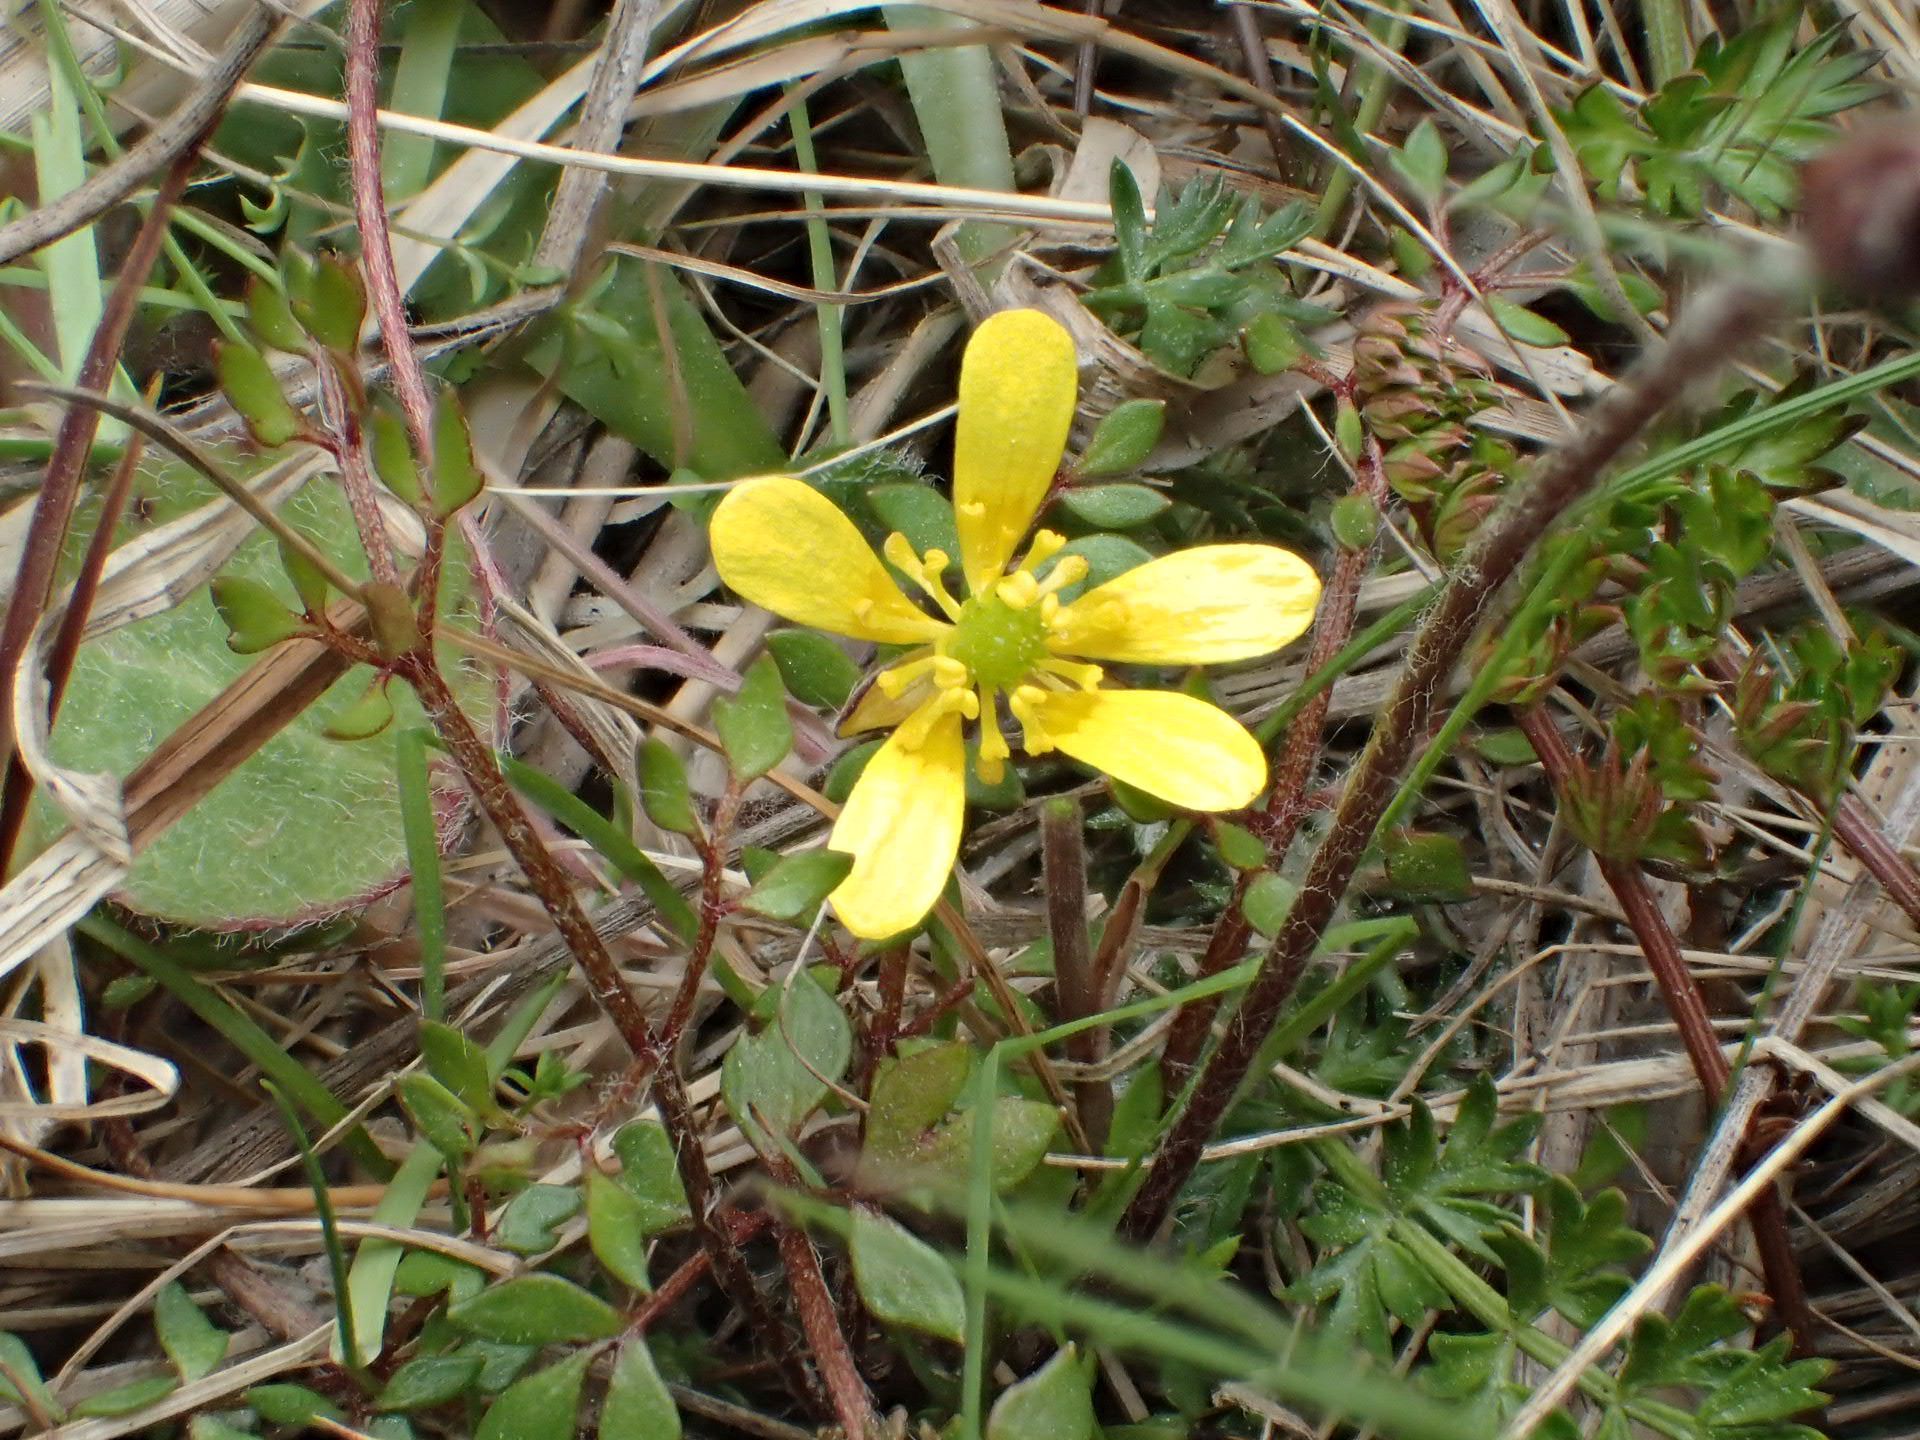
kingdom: Plantae
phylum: Tracheophyta
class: Magnoliopsida
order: Ranunculales
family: Ranunculaceae
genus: Ranunculus
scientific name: Ranunculus gracilipes
